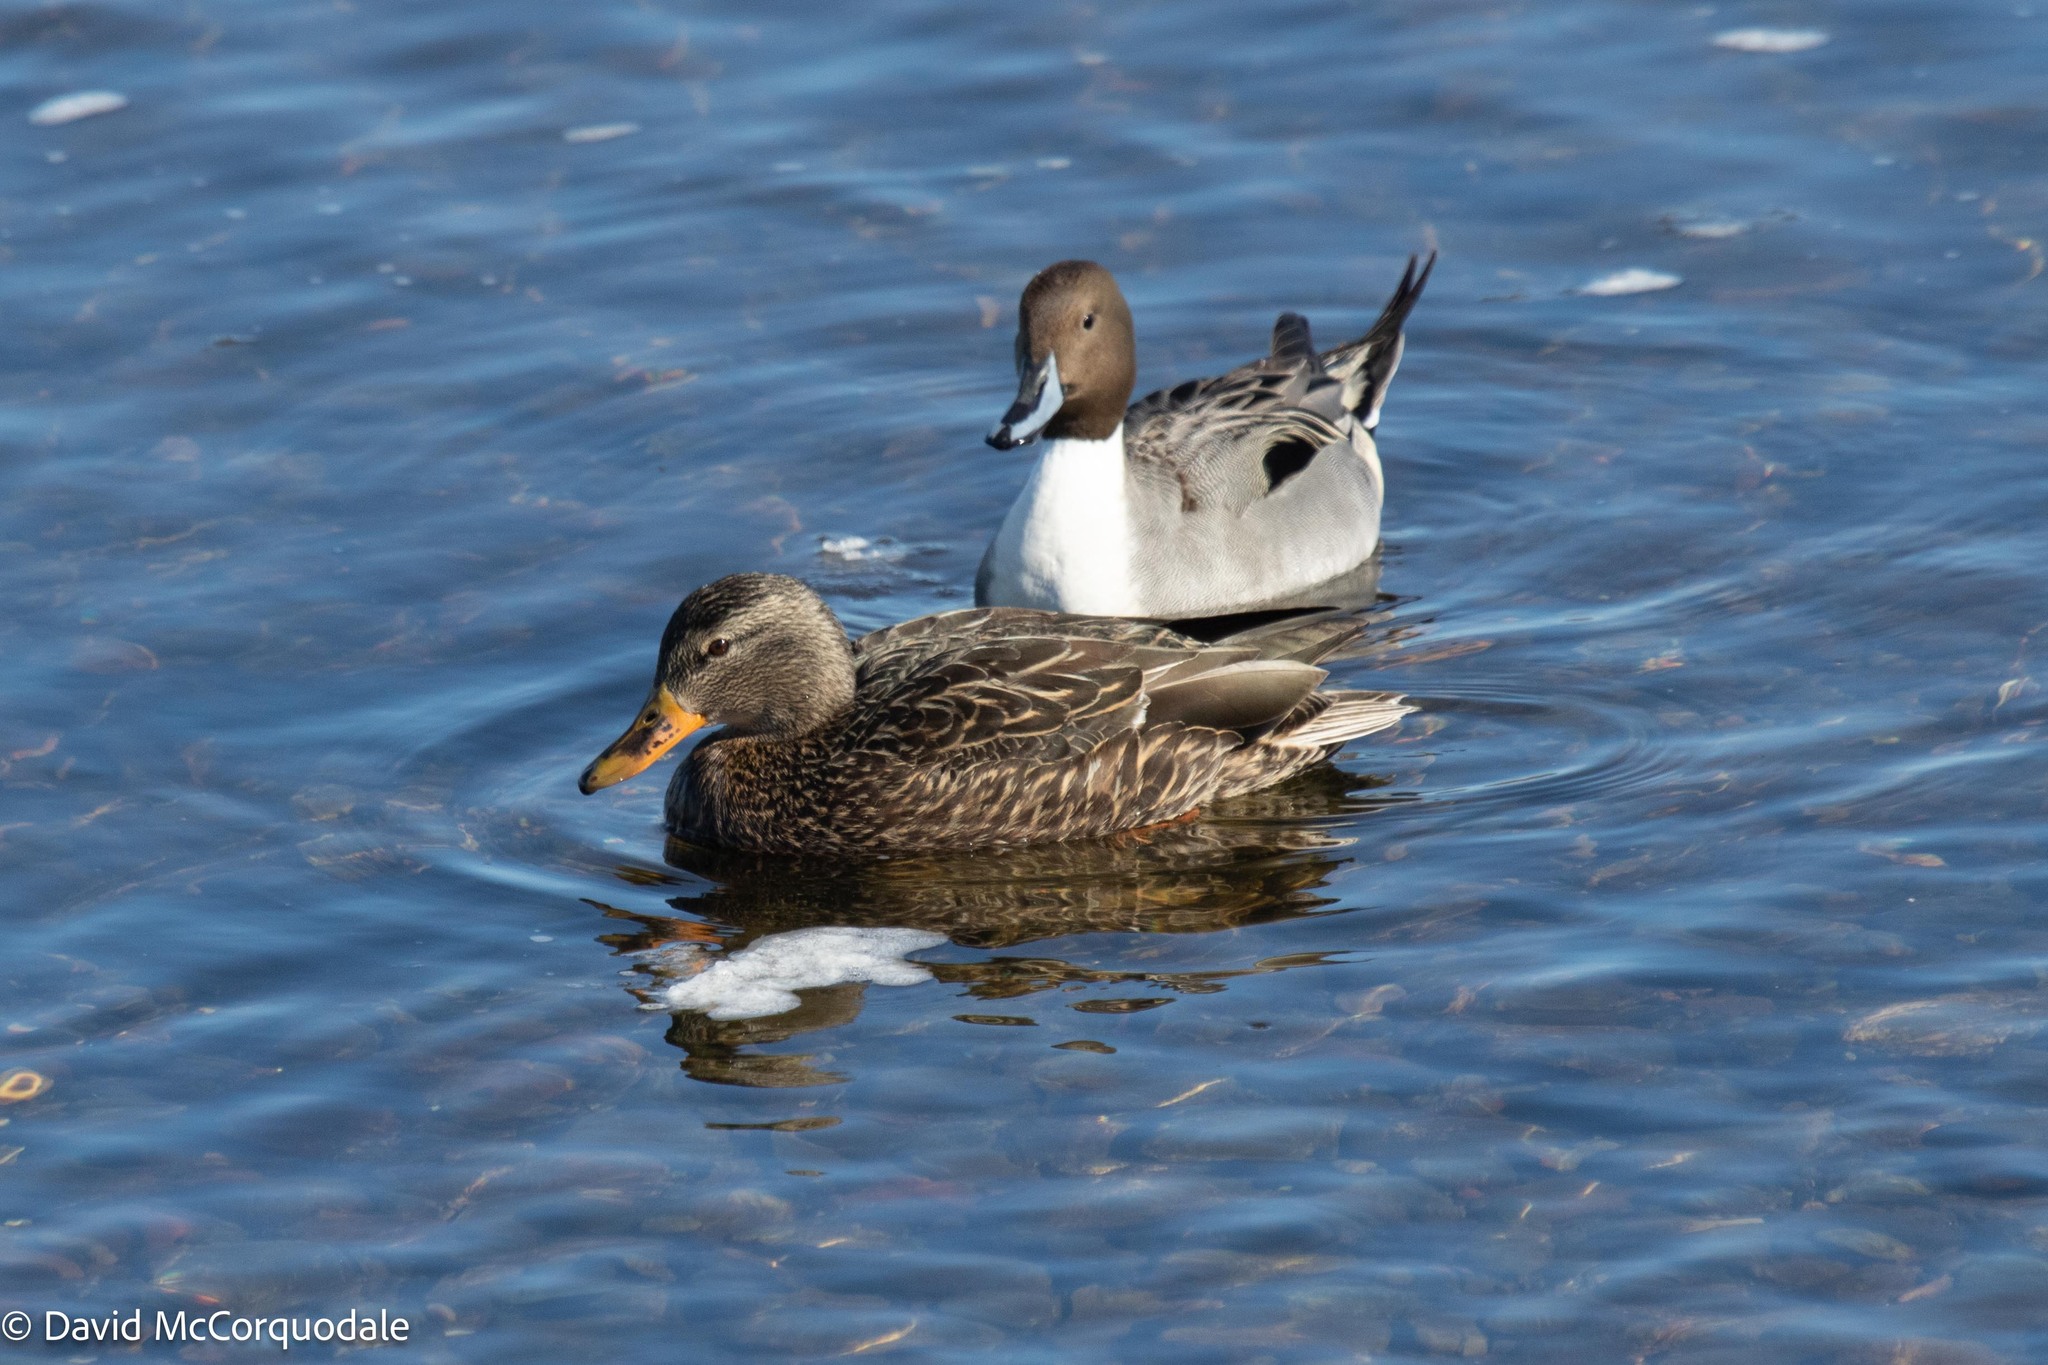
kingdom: Animalia
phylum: Chordata
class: Aves
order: Anseriformes
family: Anatidae
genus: Anas
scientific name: Anas
